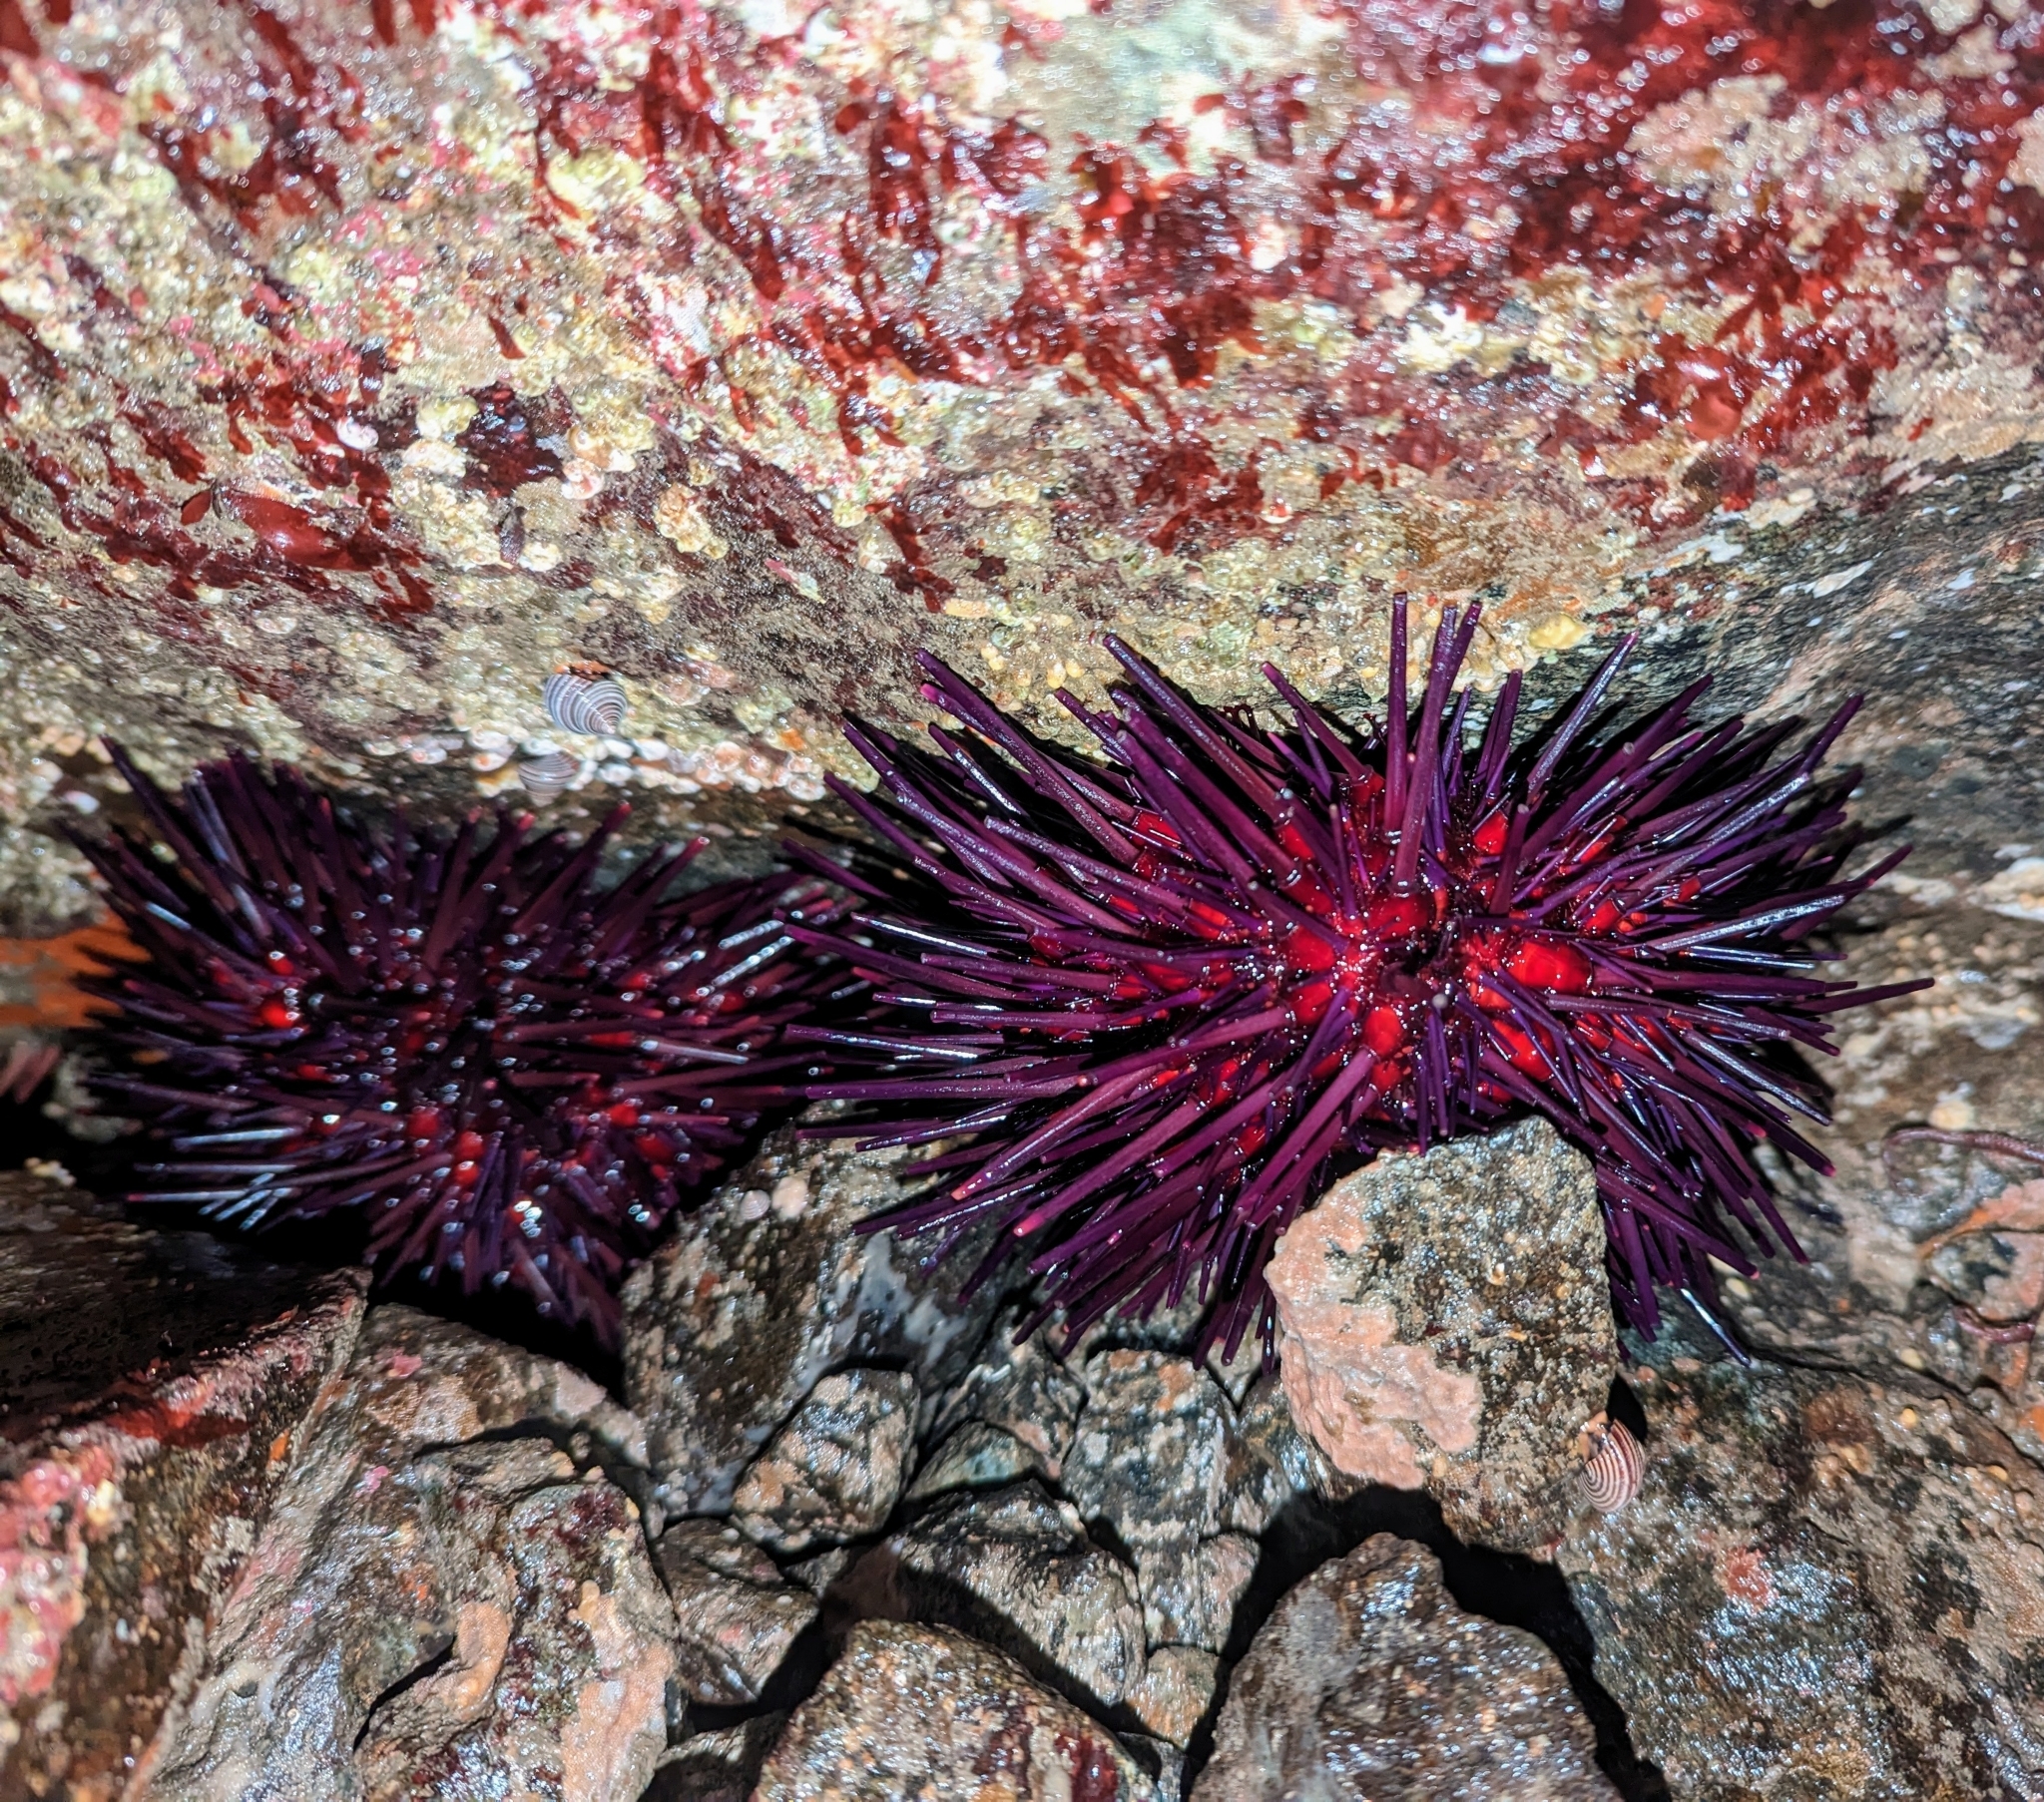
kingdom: Animalia
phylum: Echinodermata
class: Echinoidea
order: Camarodonta
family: Strongylocentrotidae
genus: Mesocentrotus
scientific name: Mesocentrotus franciscanus
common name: Red sea urchin
